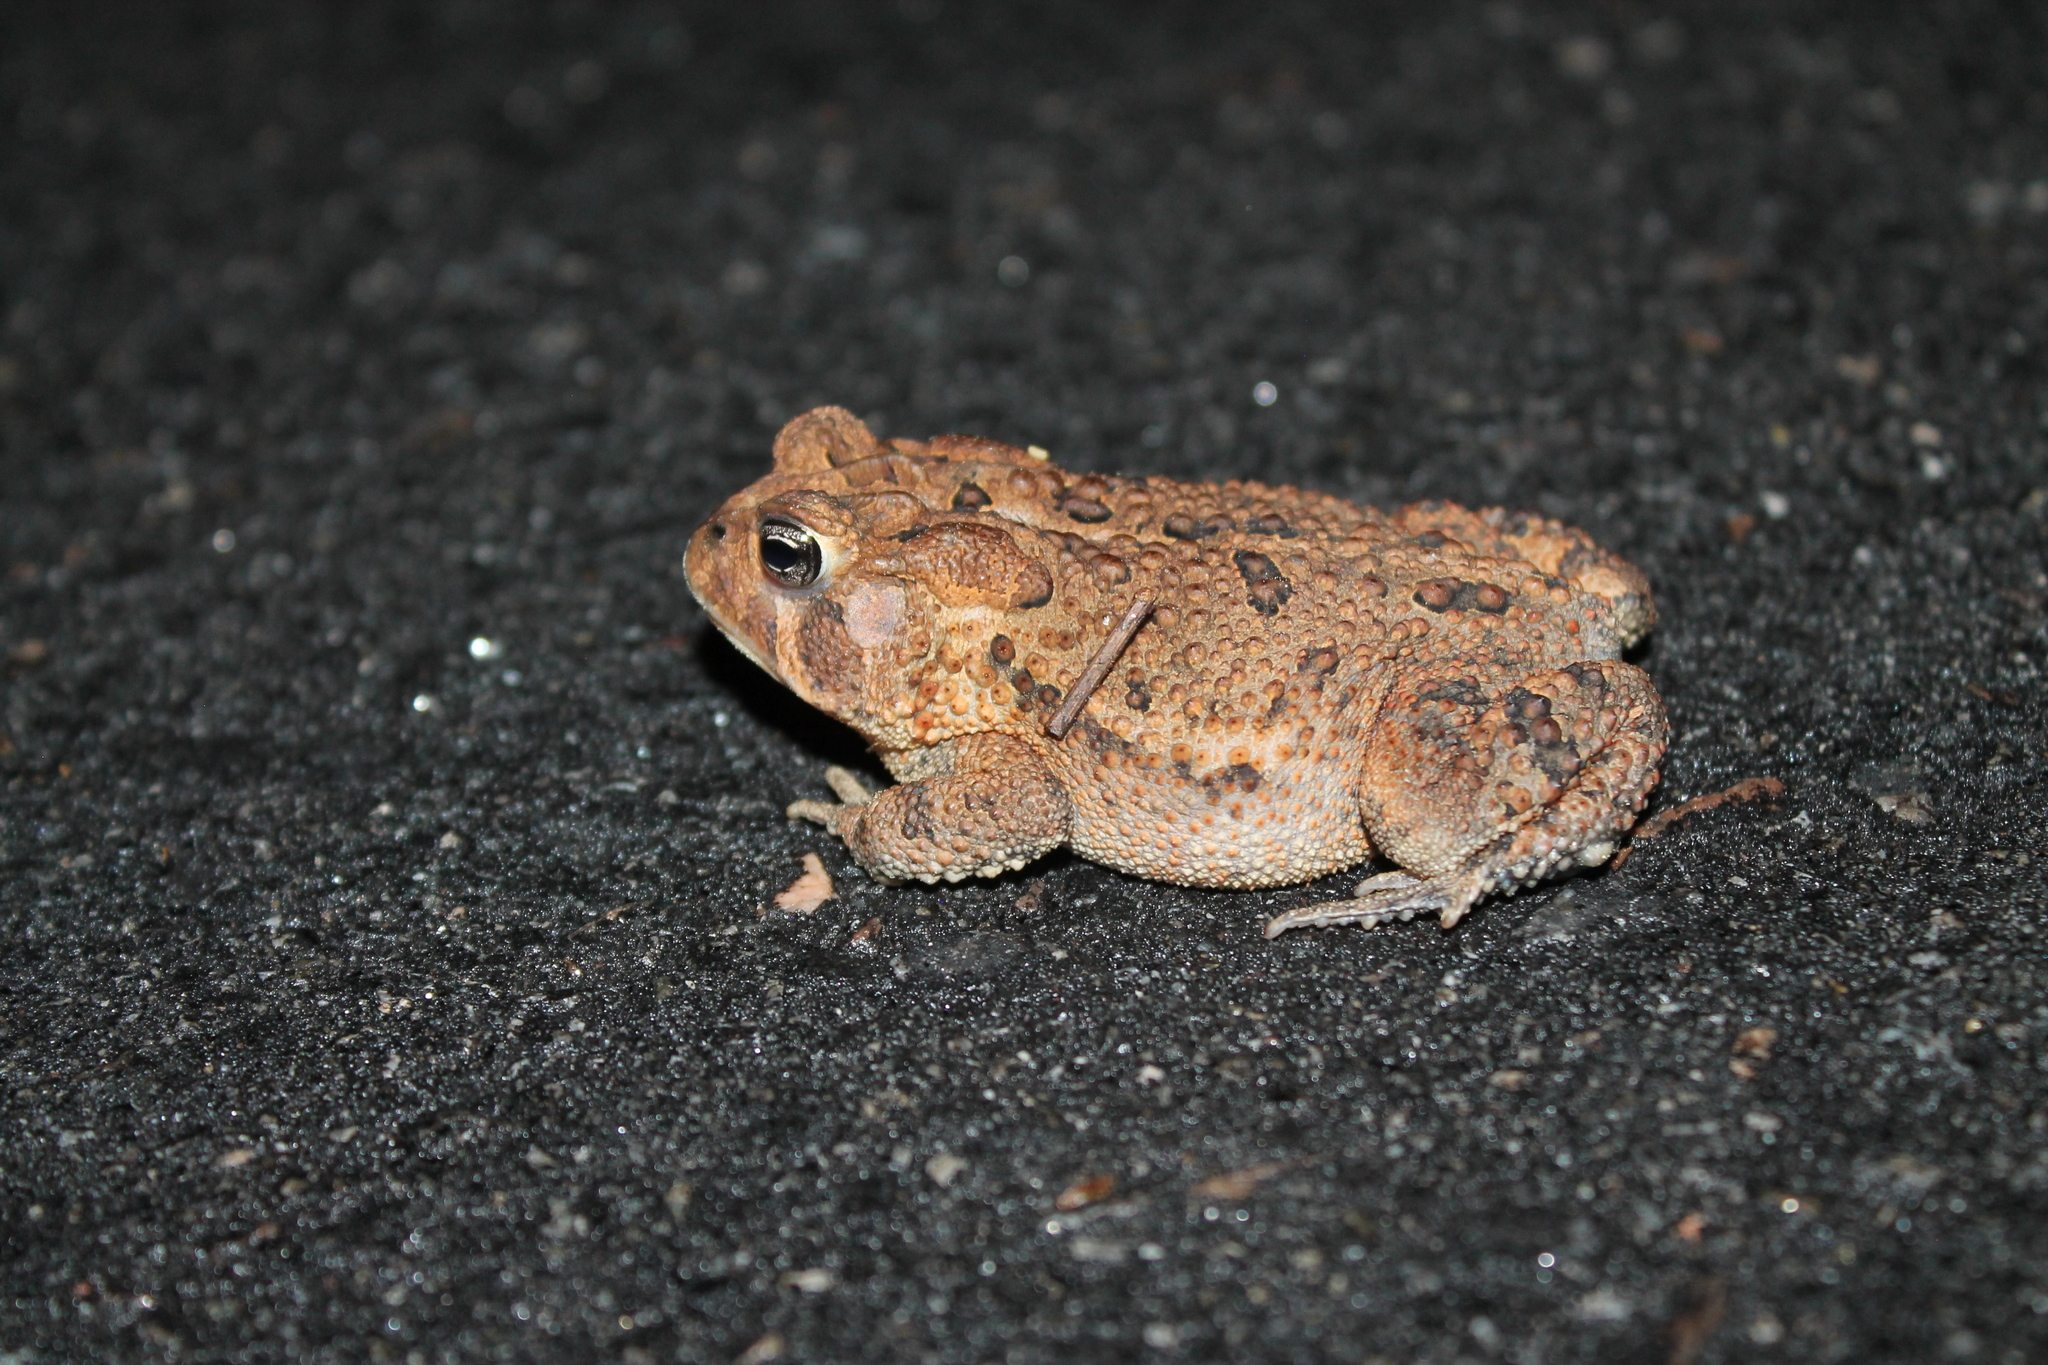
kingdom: Animalia
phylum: Chordata
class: Amphibia
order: Anura
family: Bufonidae
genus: Anaxyrus
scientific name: Anaxyrus terrestris
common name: Southern toad
